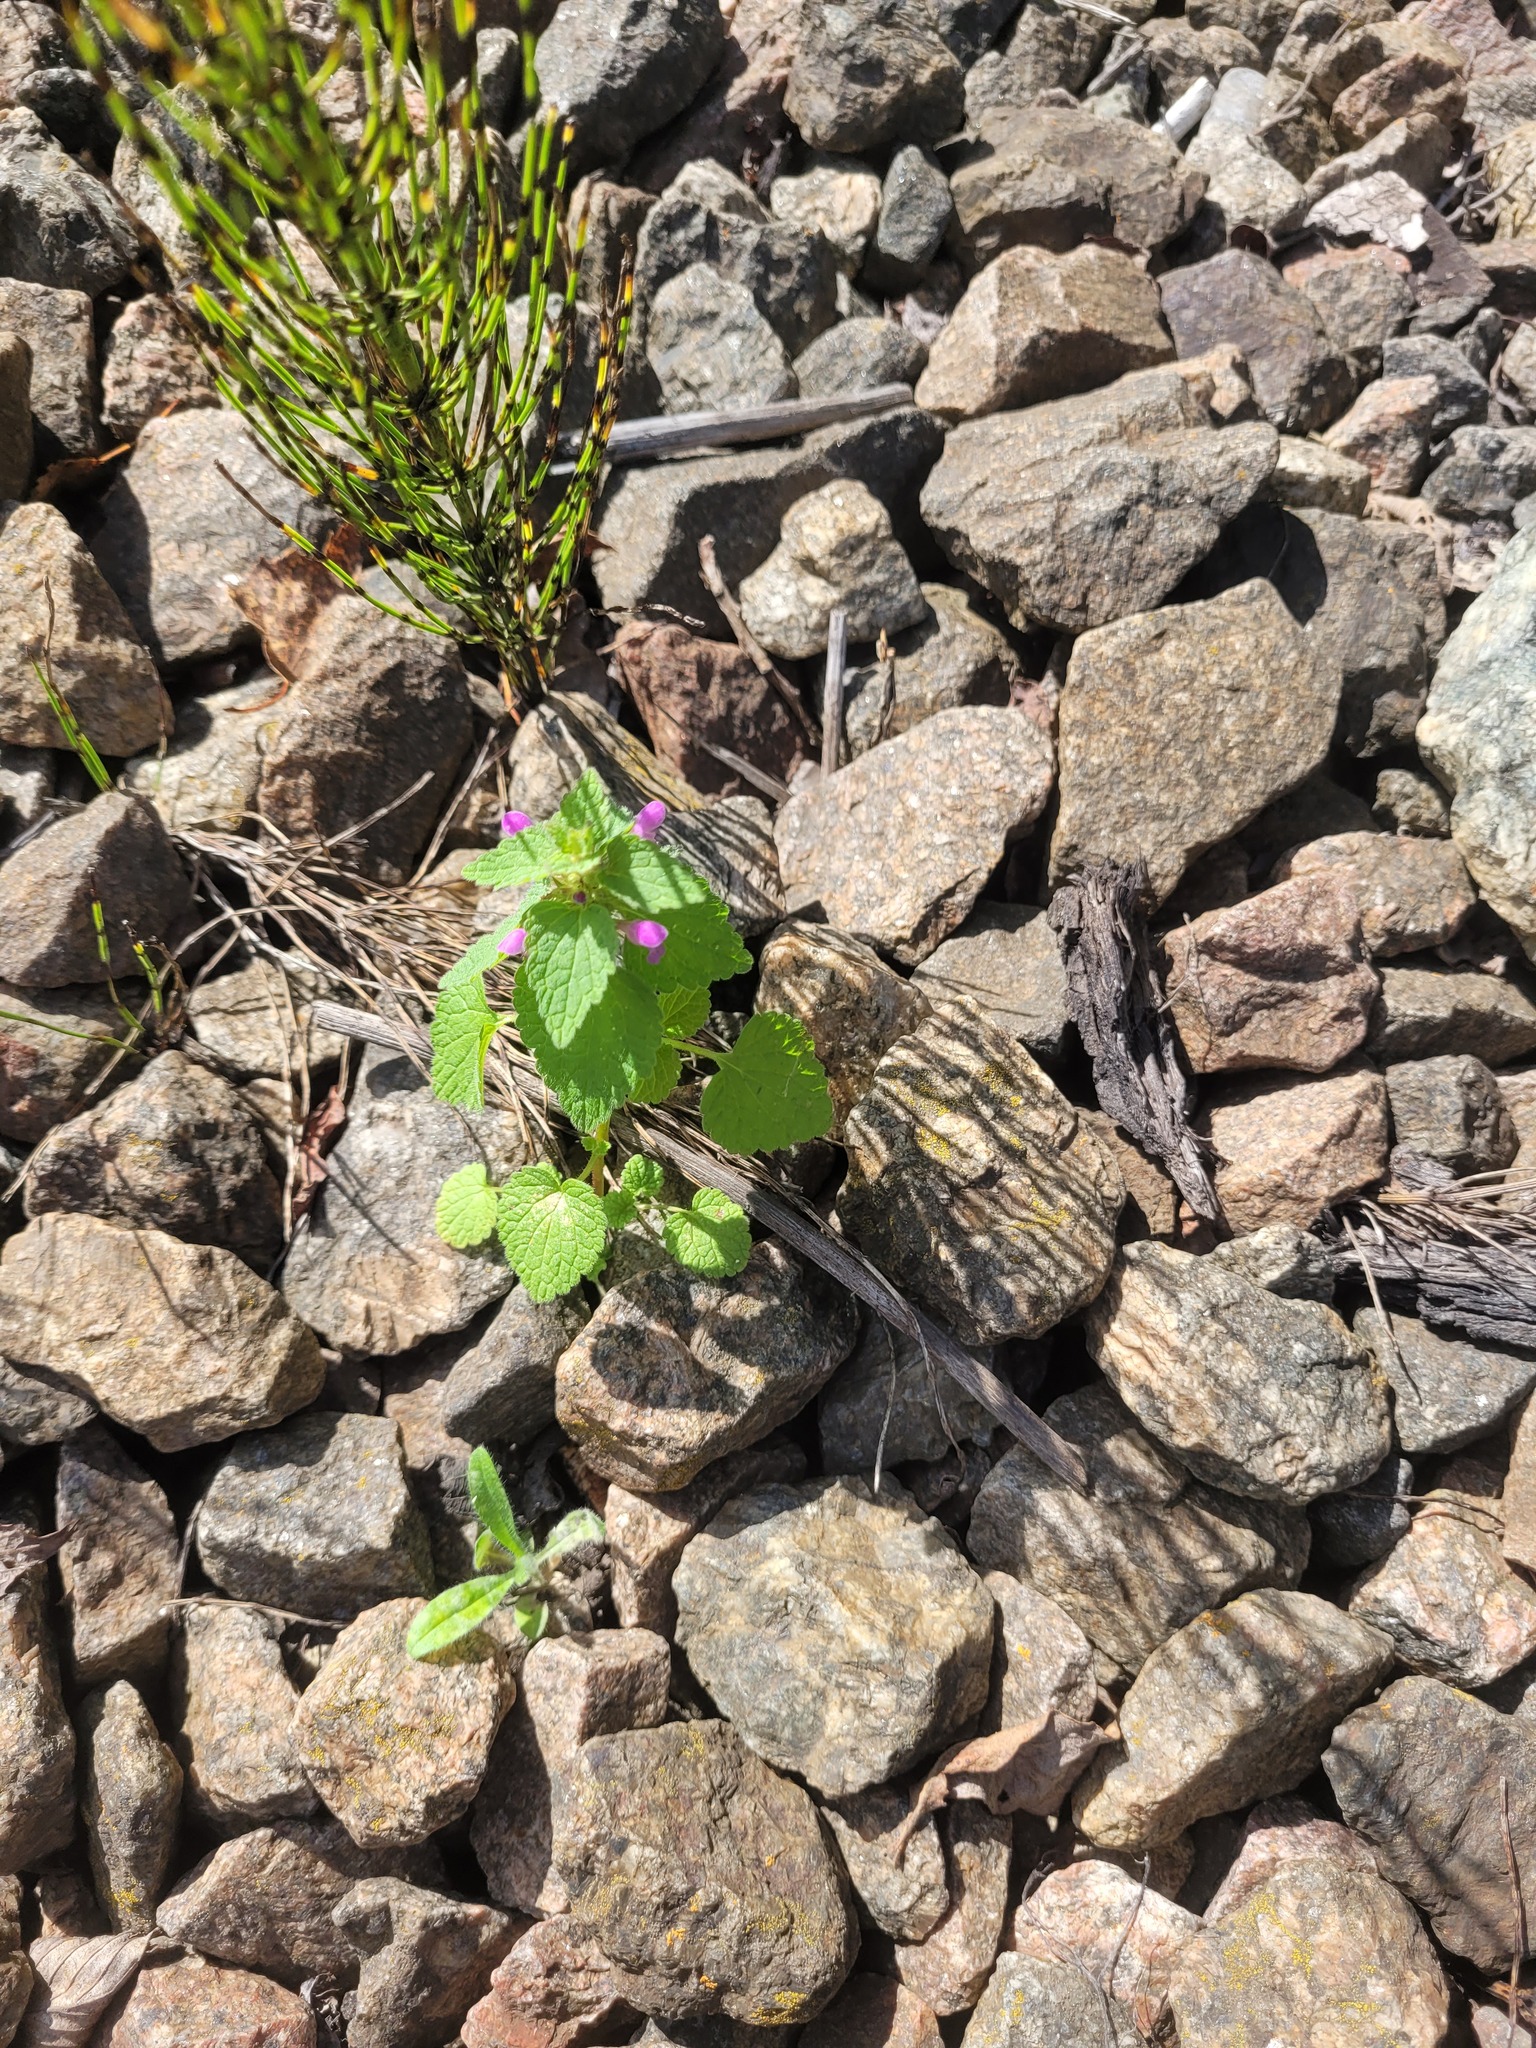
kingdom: Plantae
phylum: Tracheophyta
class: Magnoliopsida
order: Lamiales
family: Lamiaceae
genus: Lamium
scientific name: Lamium purpureum
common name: Red dead-nettle
